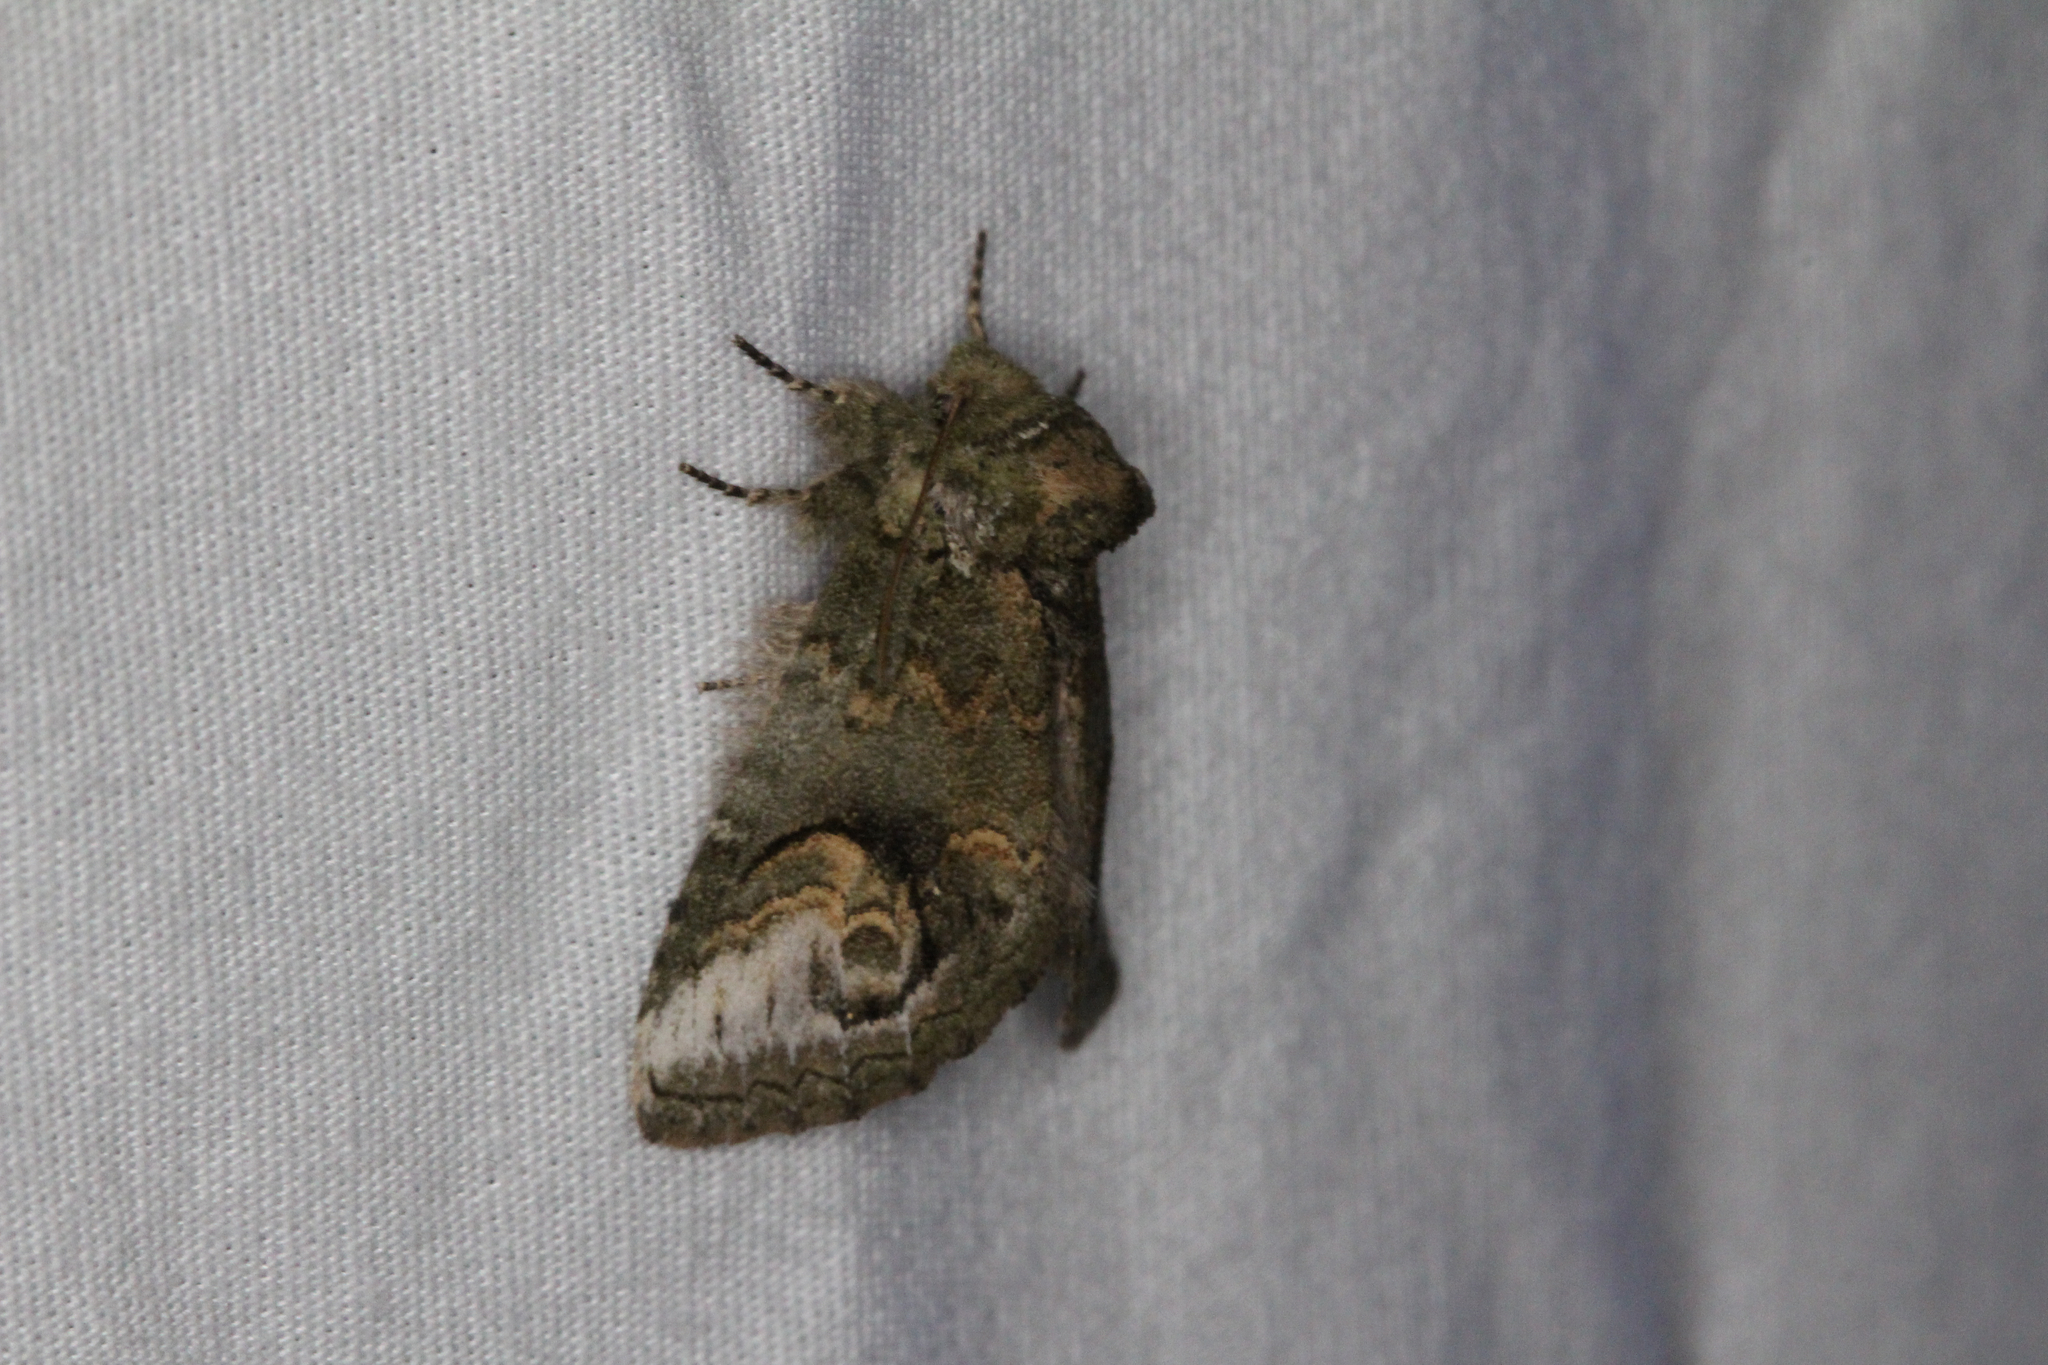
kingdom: Animalia
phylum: Arthropoda
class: Insecta
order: Lepidoptera
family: Notodontidae
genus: Rifargia
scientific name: Rifargia
